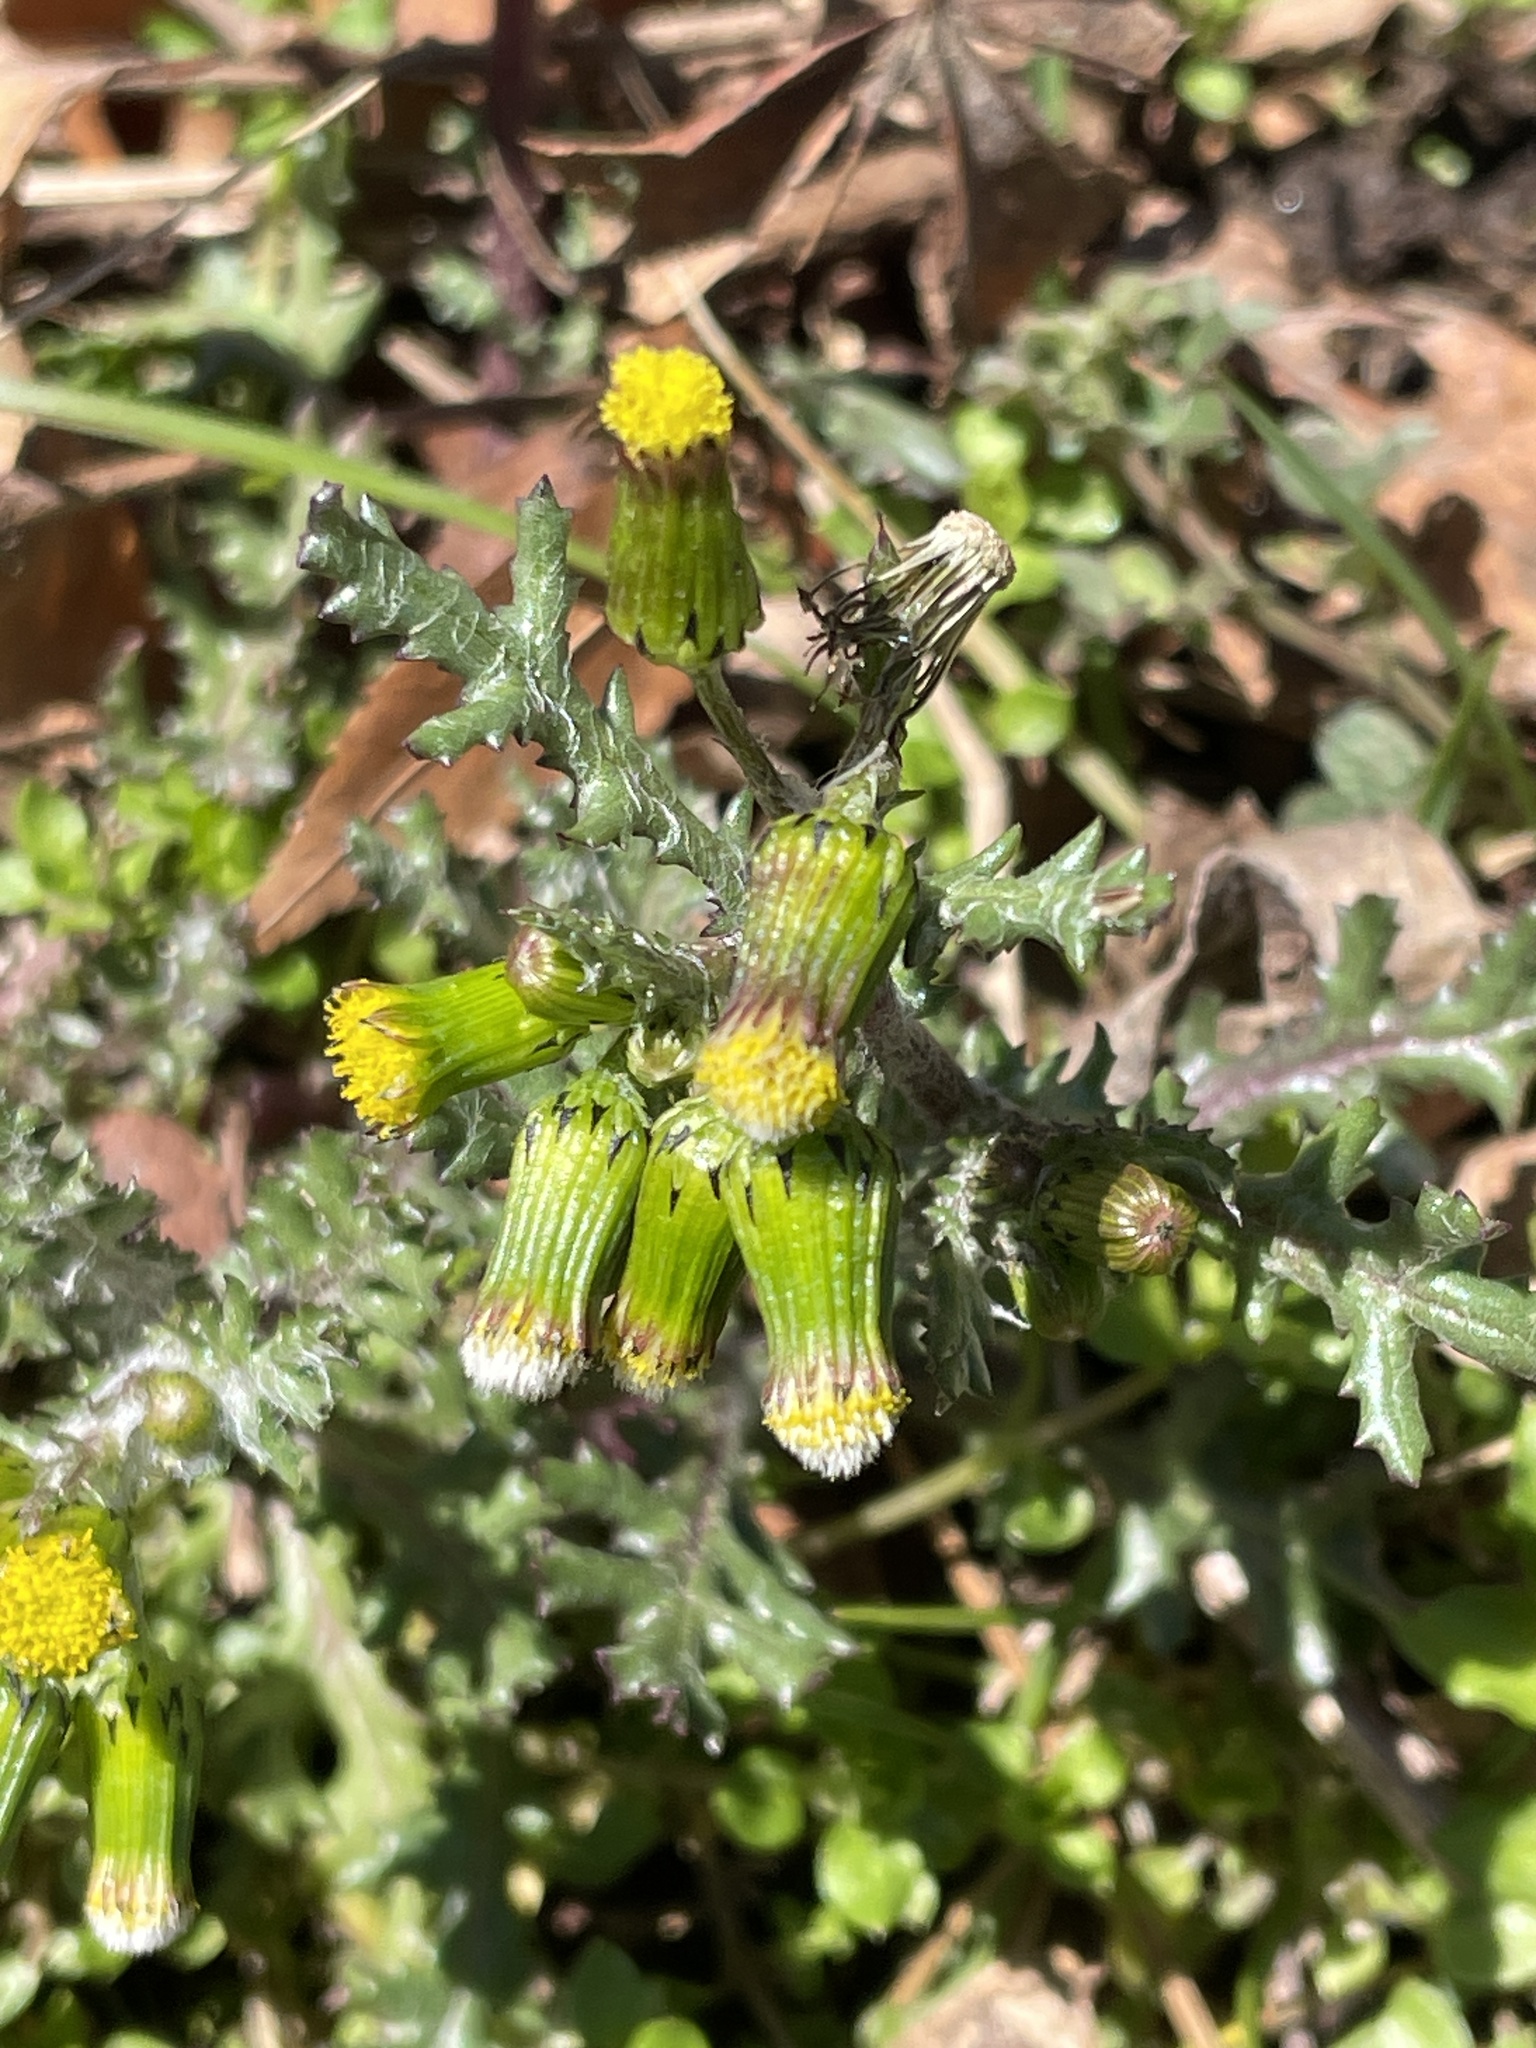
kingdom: Plantae
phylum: Tracheophyta
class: Magnoliopsida
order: Asterales
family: Asteraceae
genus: Senecio
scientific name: Senecio vulgaris
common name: Old-man-in-the-spring
